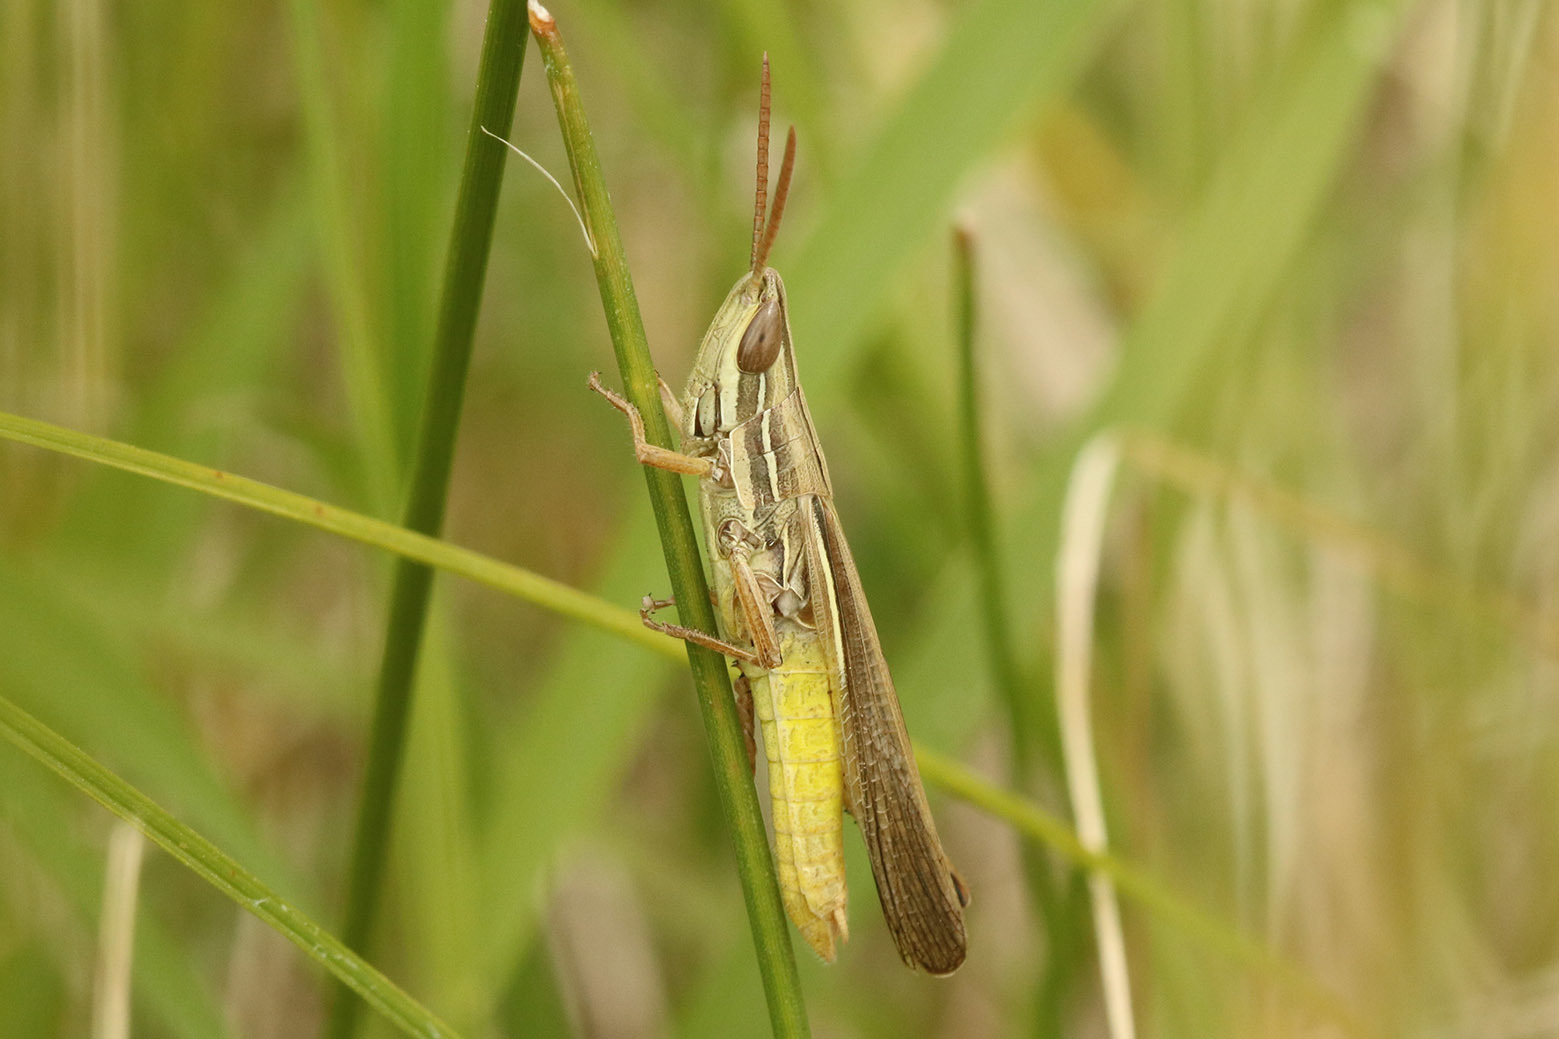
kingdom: Animalia
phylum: Arthropoda
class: Insecta
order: Orthoptera
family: Acrididae
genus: Sinipta
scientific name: Sinipta dalmani
